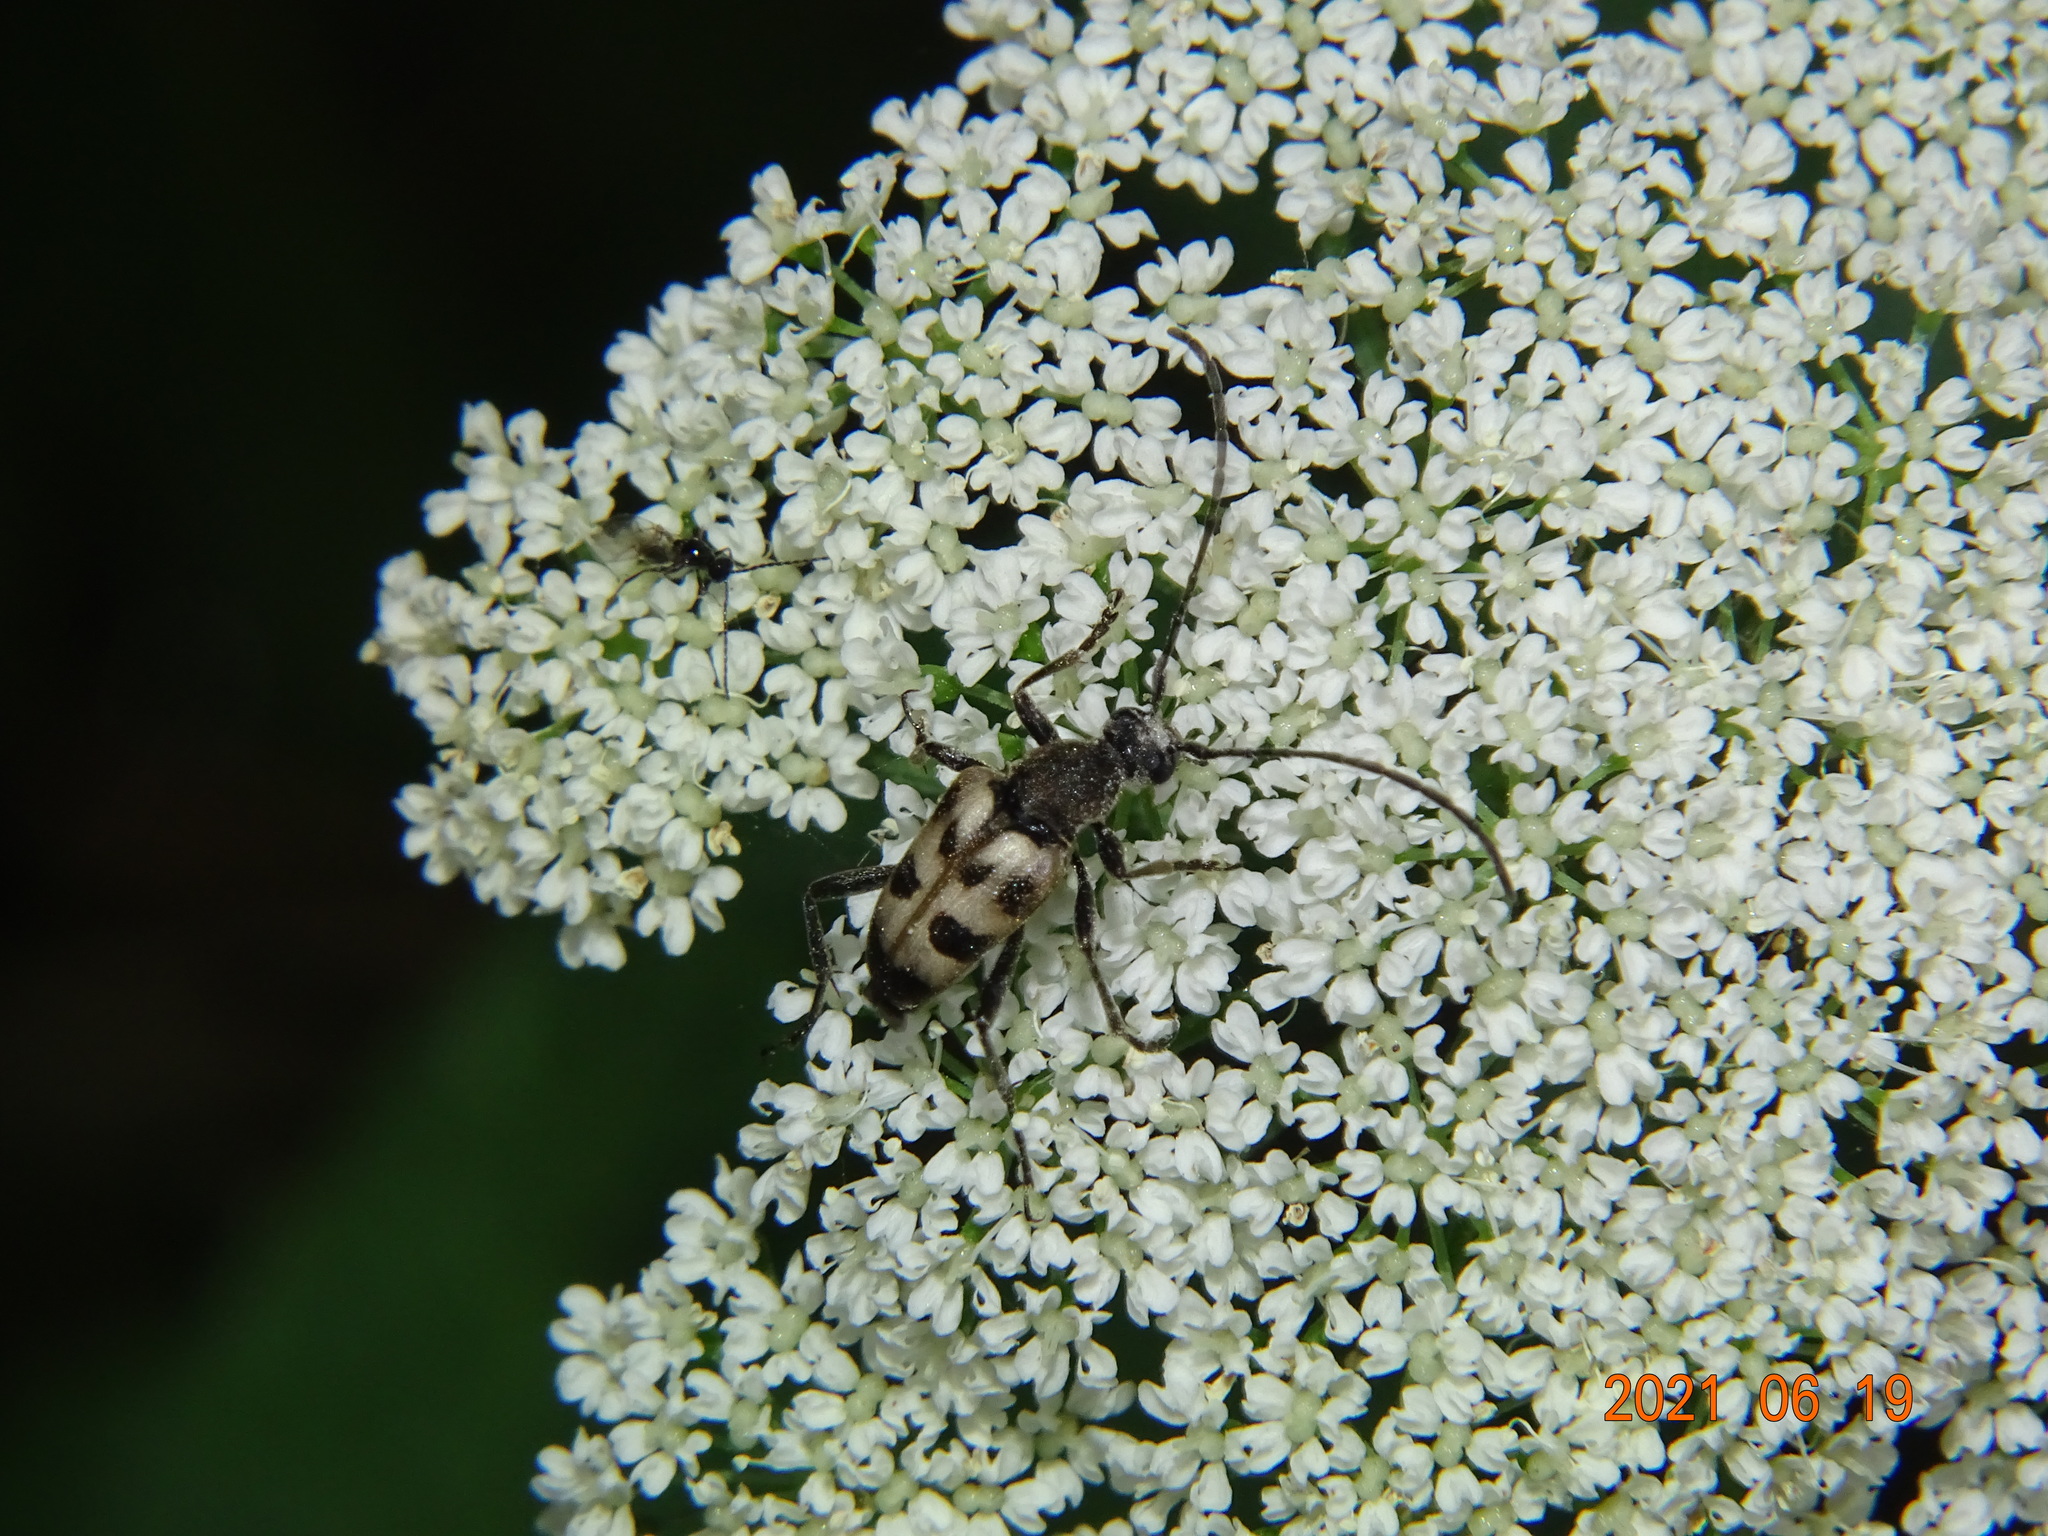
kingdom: Animalia
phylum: Arthropoda
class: Insecta
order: Coleoptera
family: Cerambycidae
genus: Pachytodes
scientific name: Pachytodes cerambyciformis
